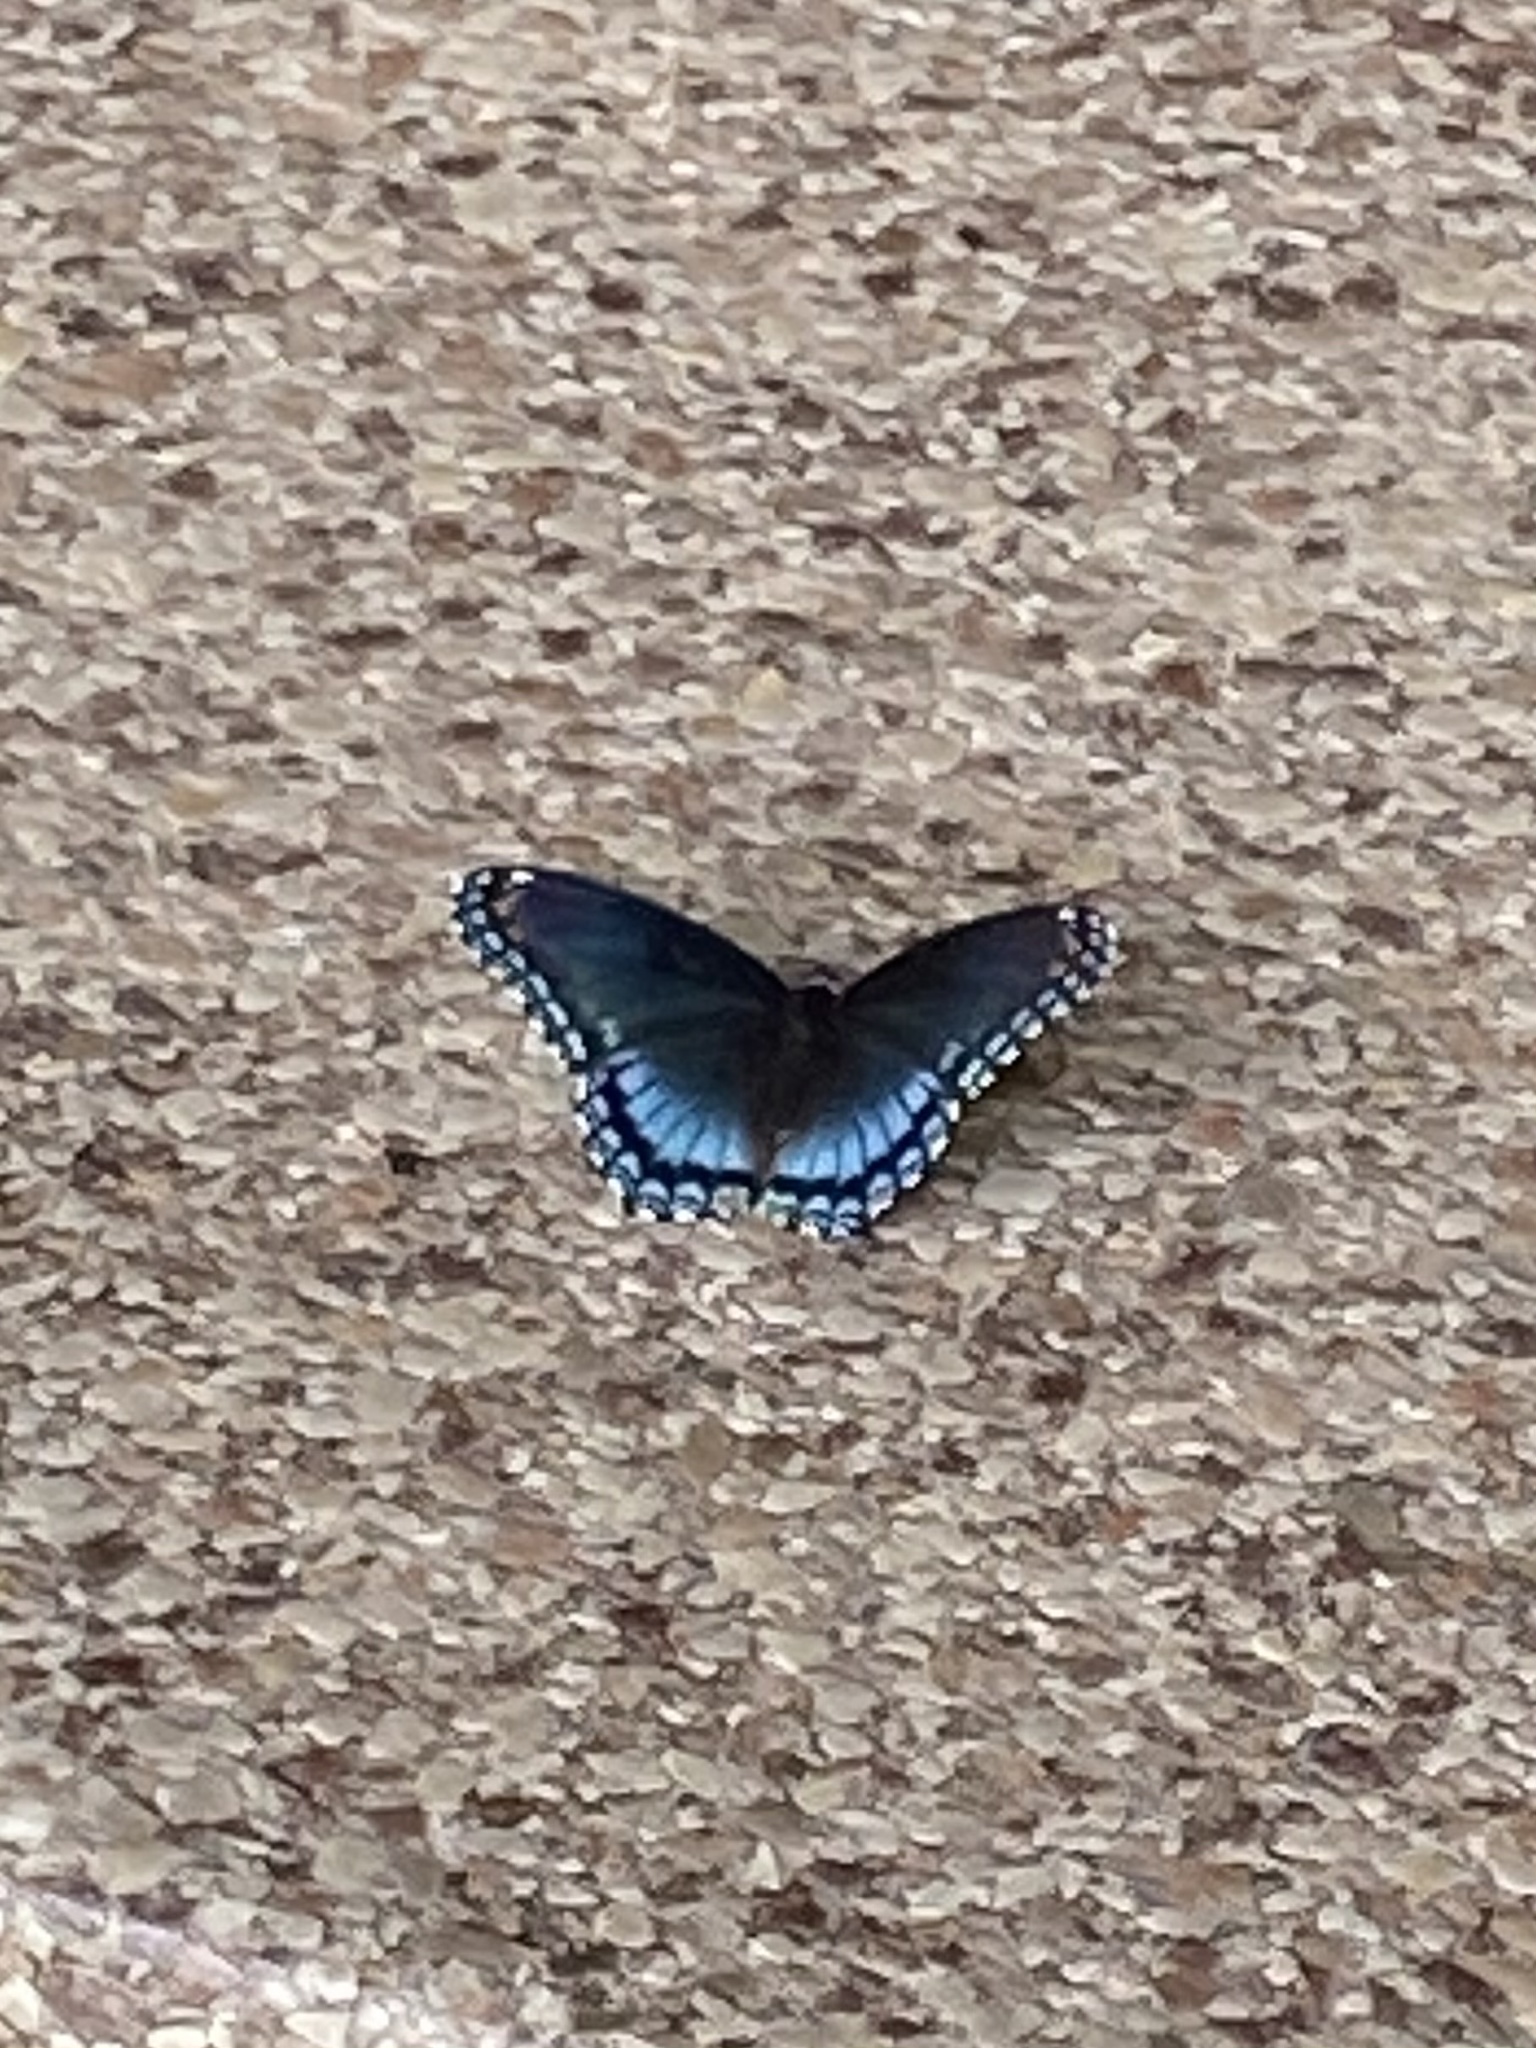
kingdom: Animalia
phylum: Arthropoda
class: Insecta
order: Lepidoptera
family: Nymphalidae
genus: Limenitis
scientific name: Limenitis astyanax
